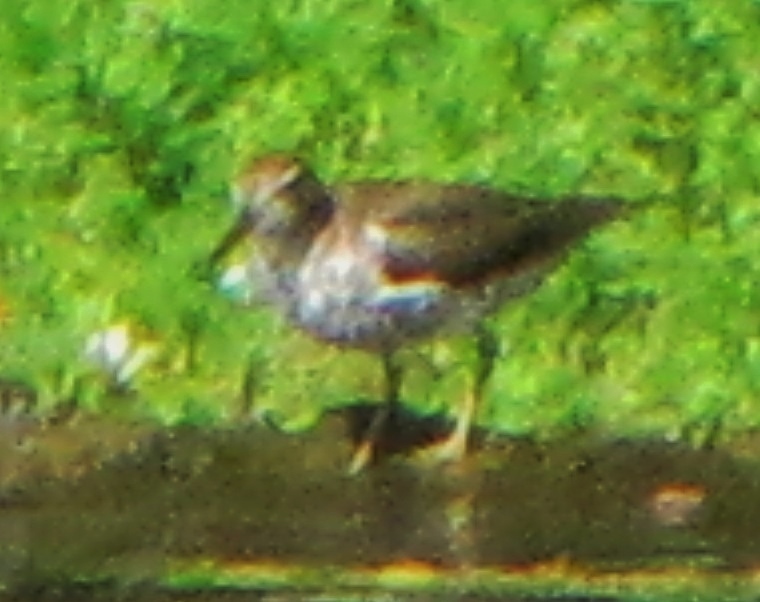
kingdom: Animalia
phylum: Chordata
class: Aves
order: Charadriiformes
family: Scolopacidae
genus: Actitis
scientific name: Actitis macularius
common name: Spotted sandpiper
